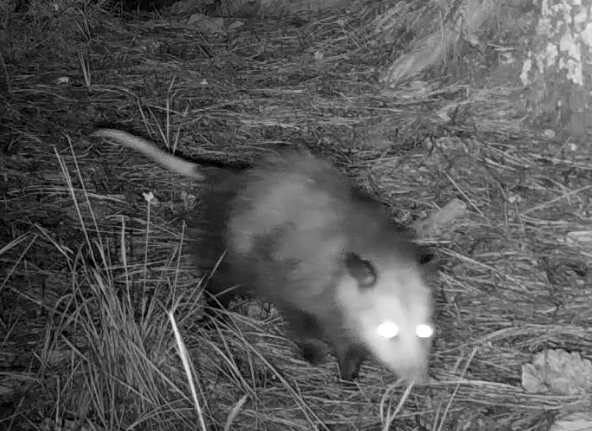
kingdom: Animalia
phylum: Chordata
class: Mammalia
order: Didelphimorphia
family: Didelphidae
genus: Didelphis
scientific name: Didelphis virginiana
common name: Virginia opossum
